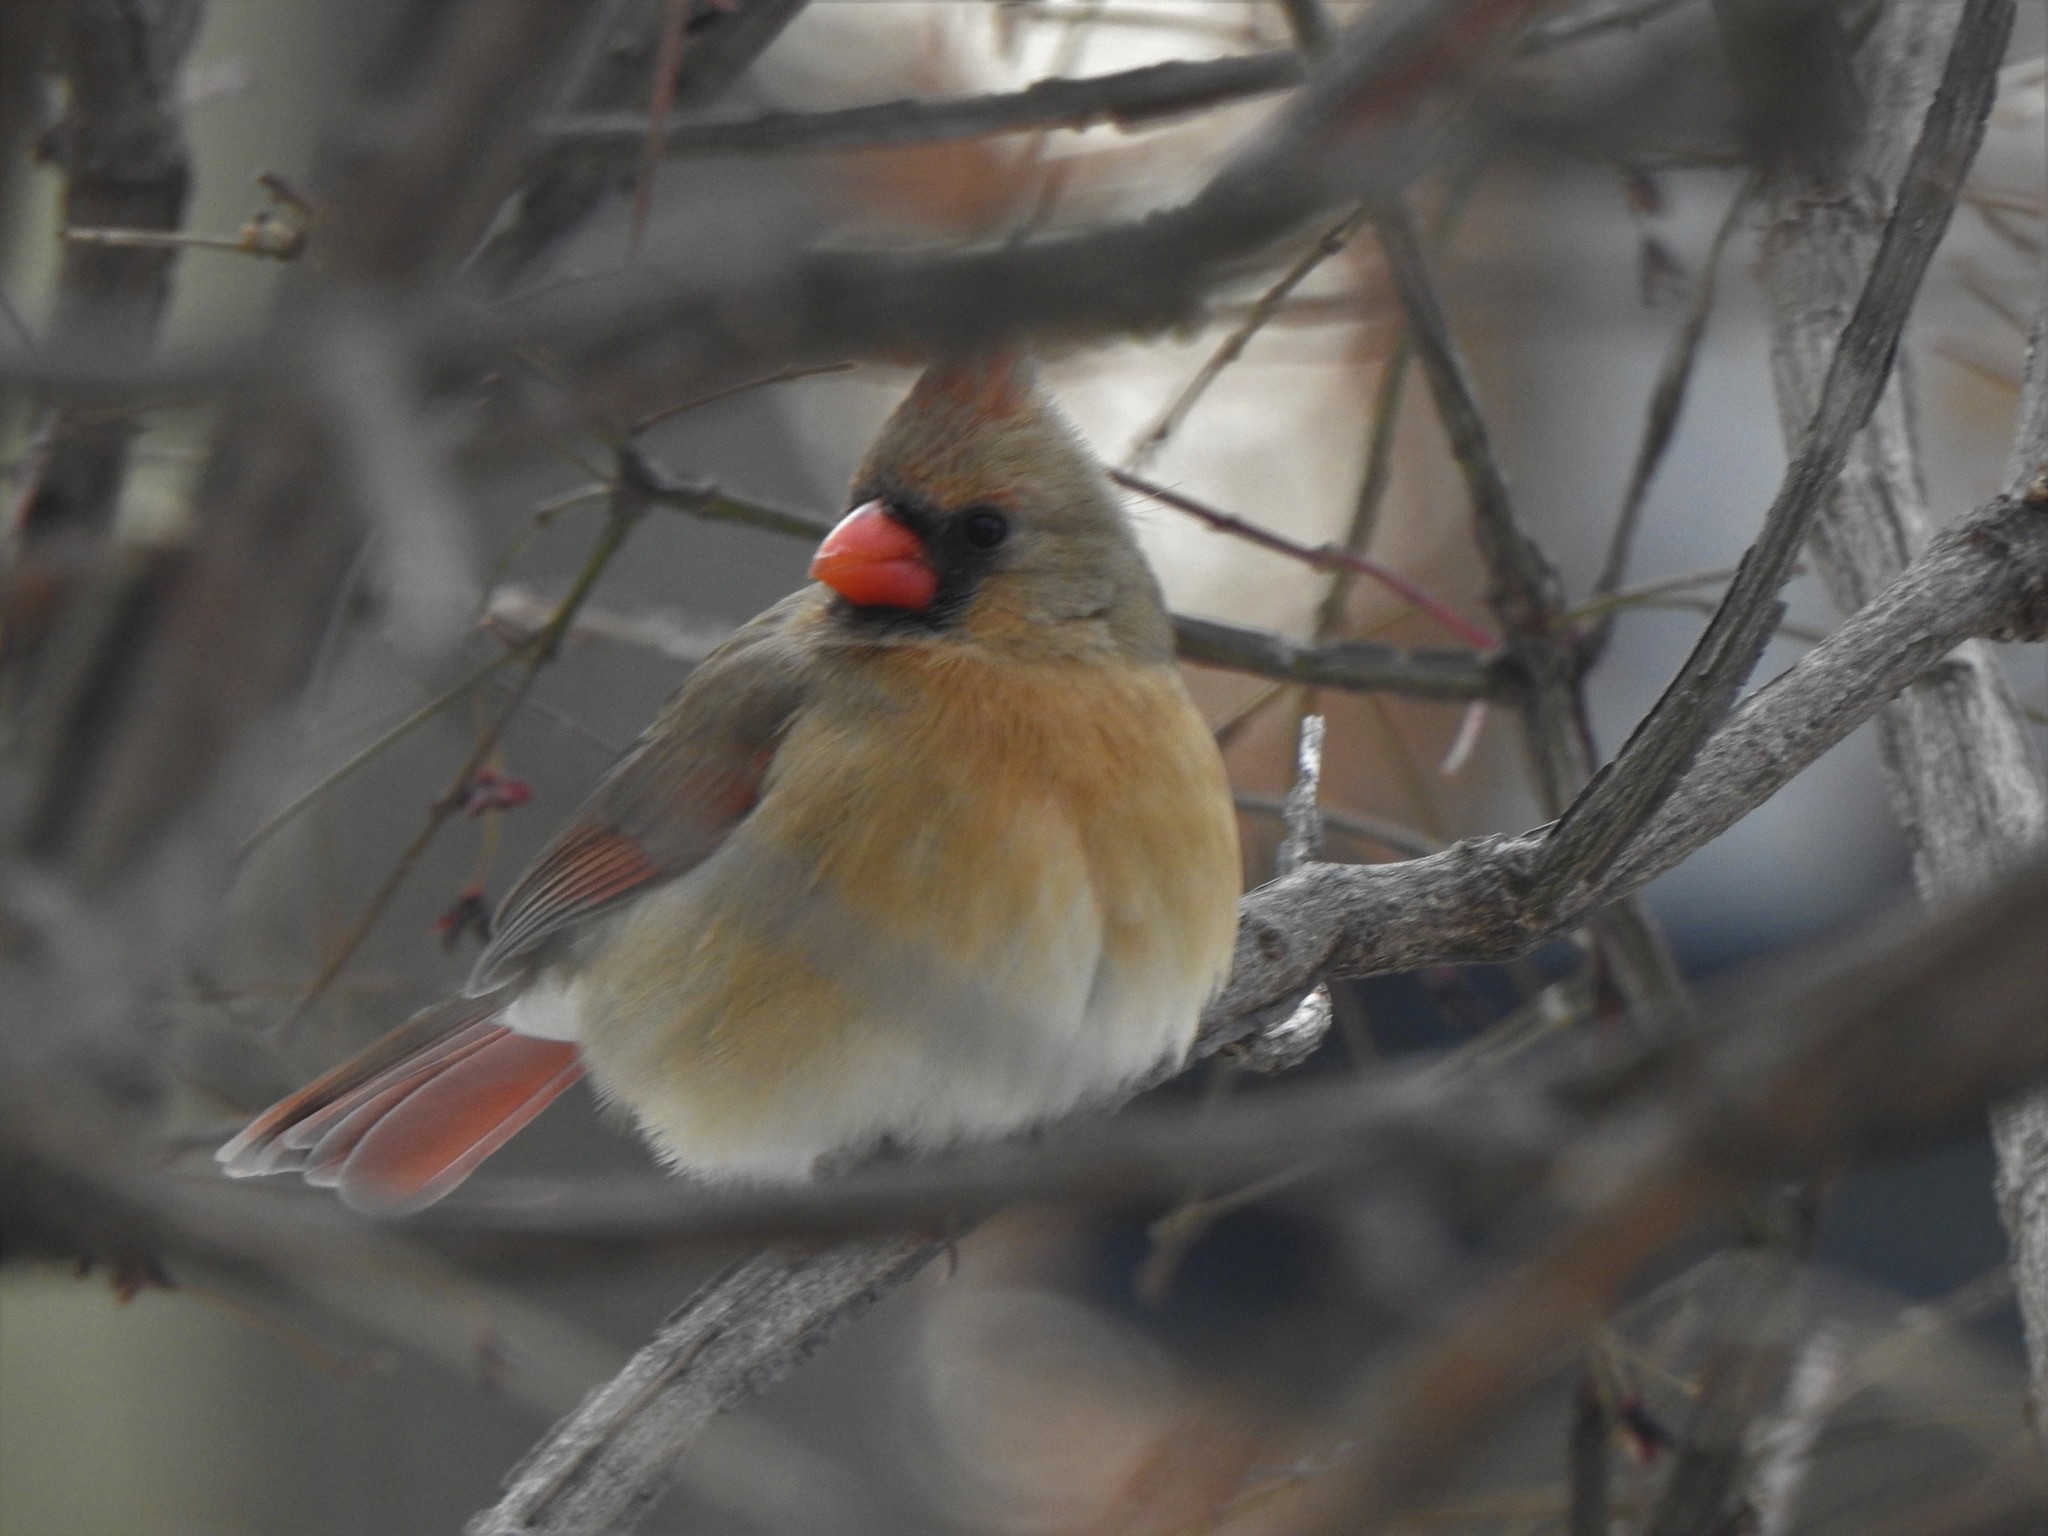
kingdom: Animalia
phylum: Chordata
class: Aves
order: Passeriformes
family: Cardinalidae
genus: Cardinalis
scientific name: Cardinalis cardinalis
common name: Northern cardinal
